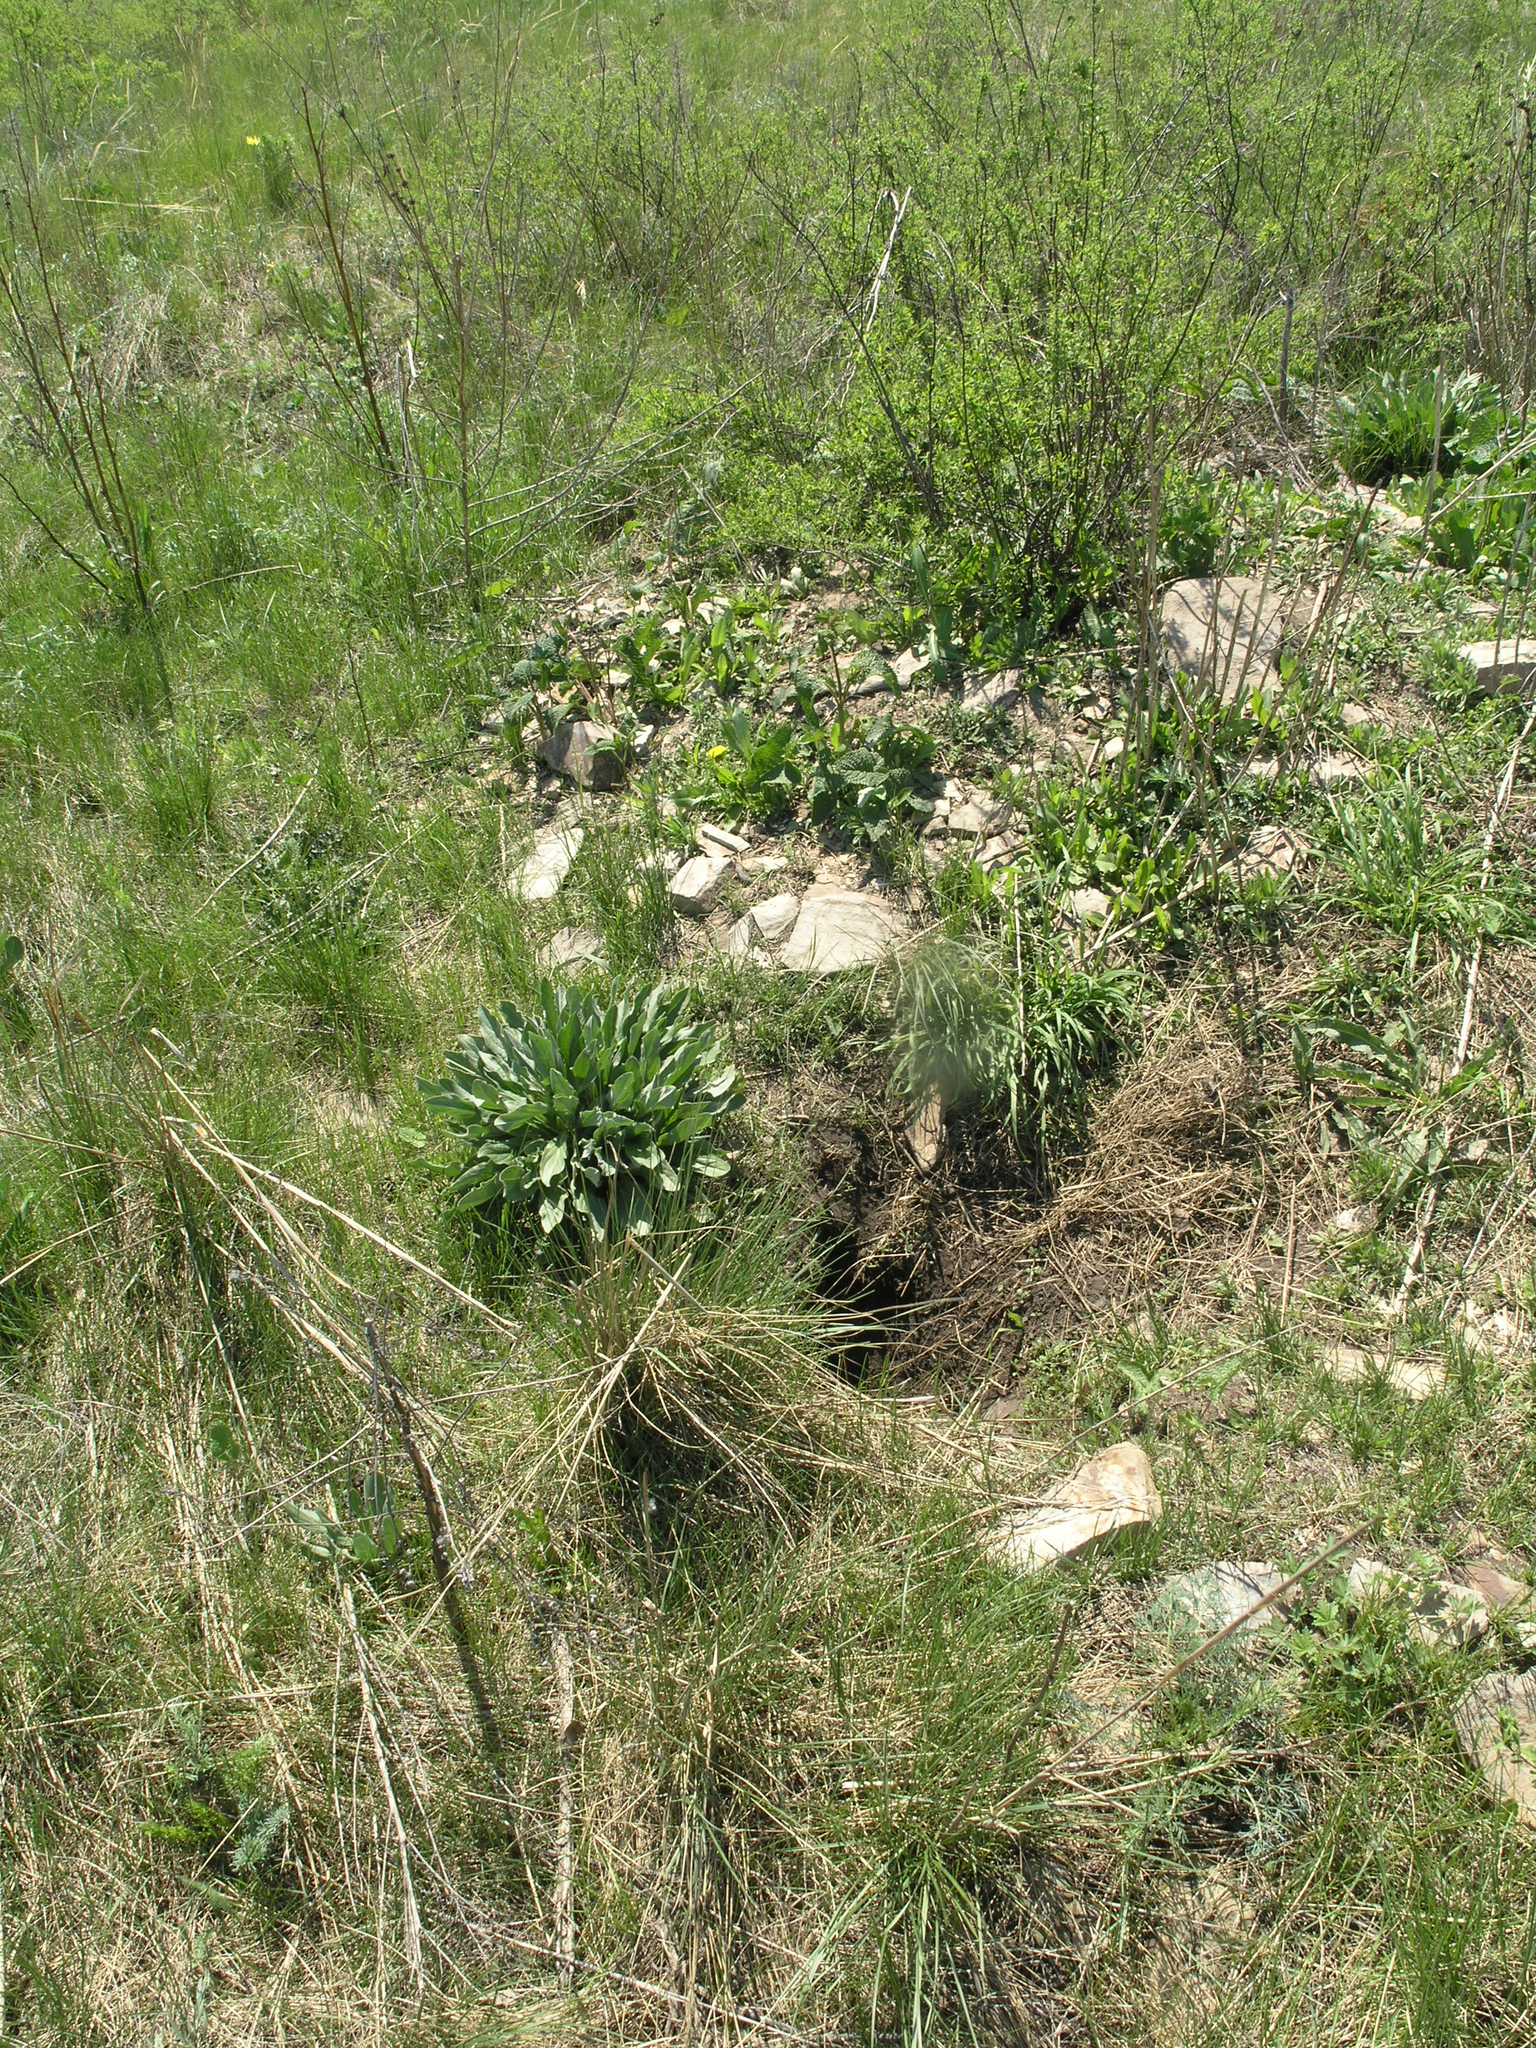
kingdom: Animalia
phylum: Chordata
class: Mammalia
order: Rodentia
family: Sciuridae
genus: Marmota
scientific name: Marmota kastschenkoi
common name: Forest steppe marmot
